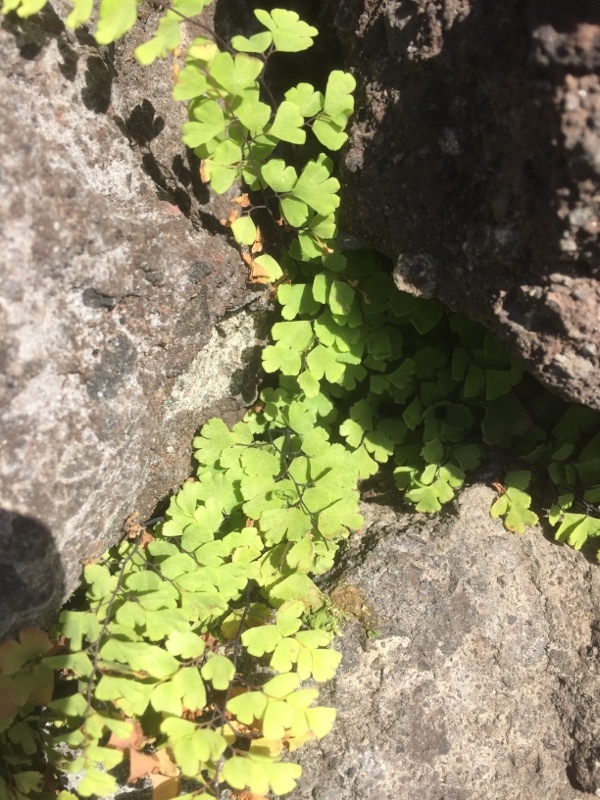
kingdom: Plantae
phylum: Tracheophyta
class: Polypodiopsida
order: Polypodiales
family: Pteridaceae
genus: Adiantum
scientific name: Adiantum capillus-veneris
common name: Maidenhair fern
